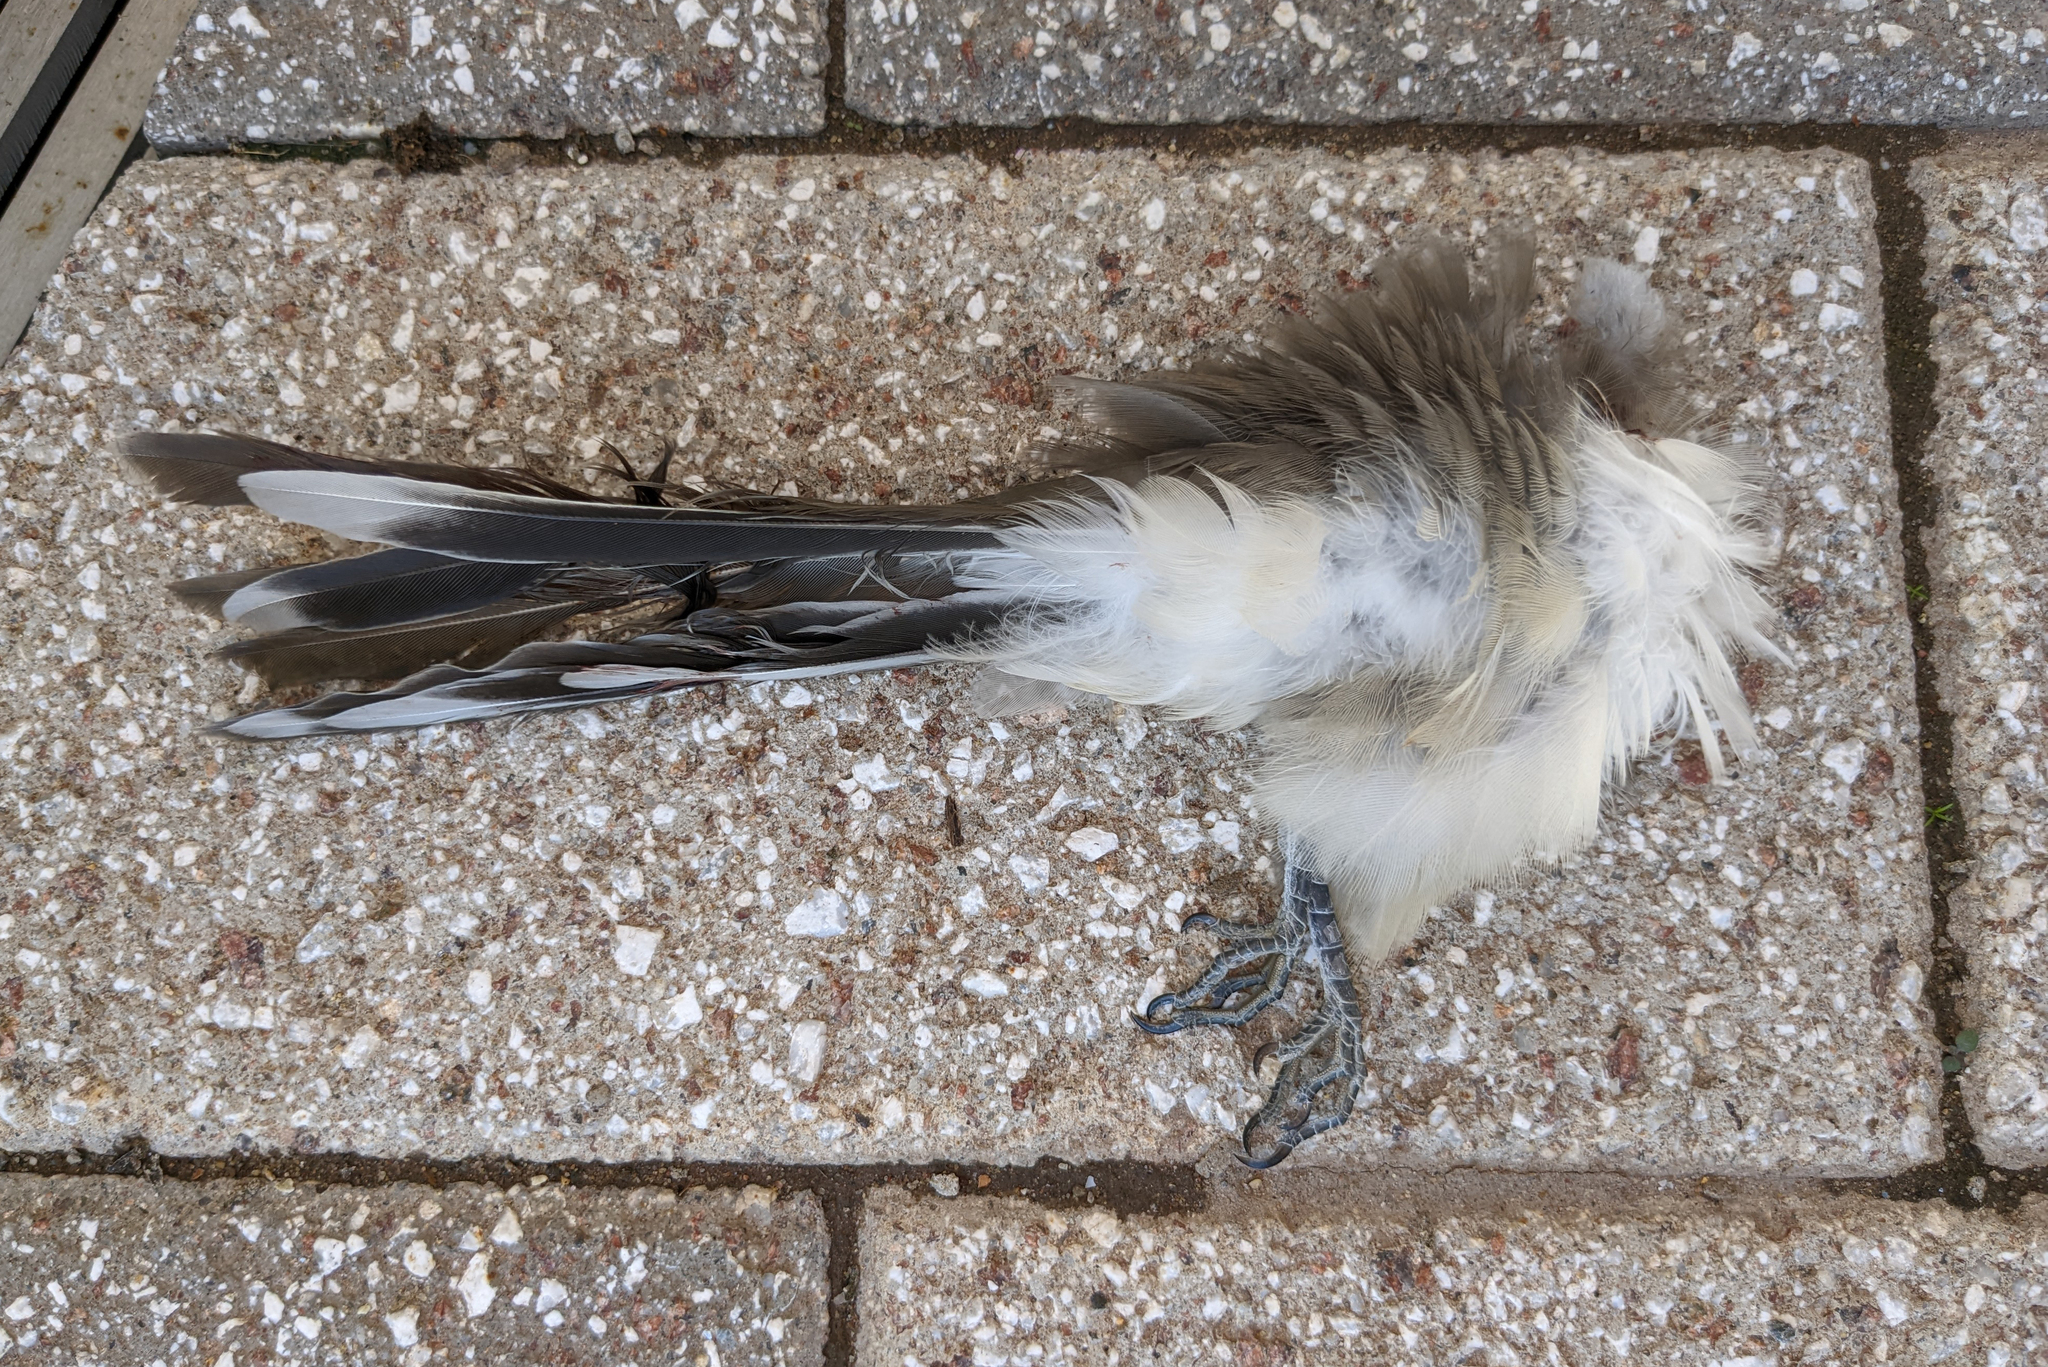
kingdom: Animalia
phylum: Chordata
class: Aves
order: Cuculiformes
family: Cuculidae
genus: Coccyzus
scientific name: Coccyzus americanus
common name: Yellow-billed cuckoo
